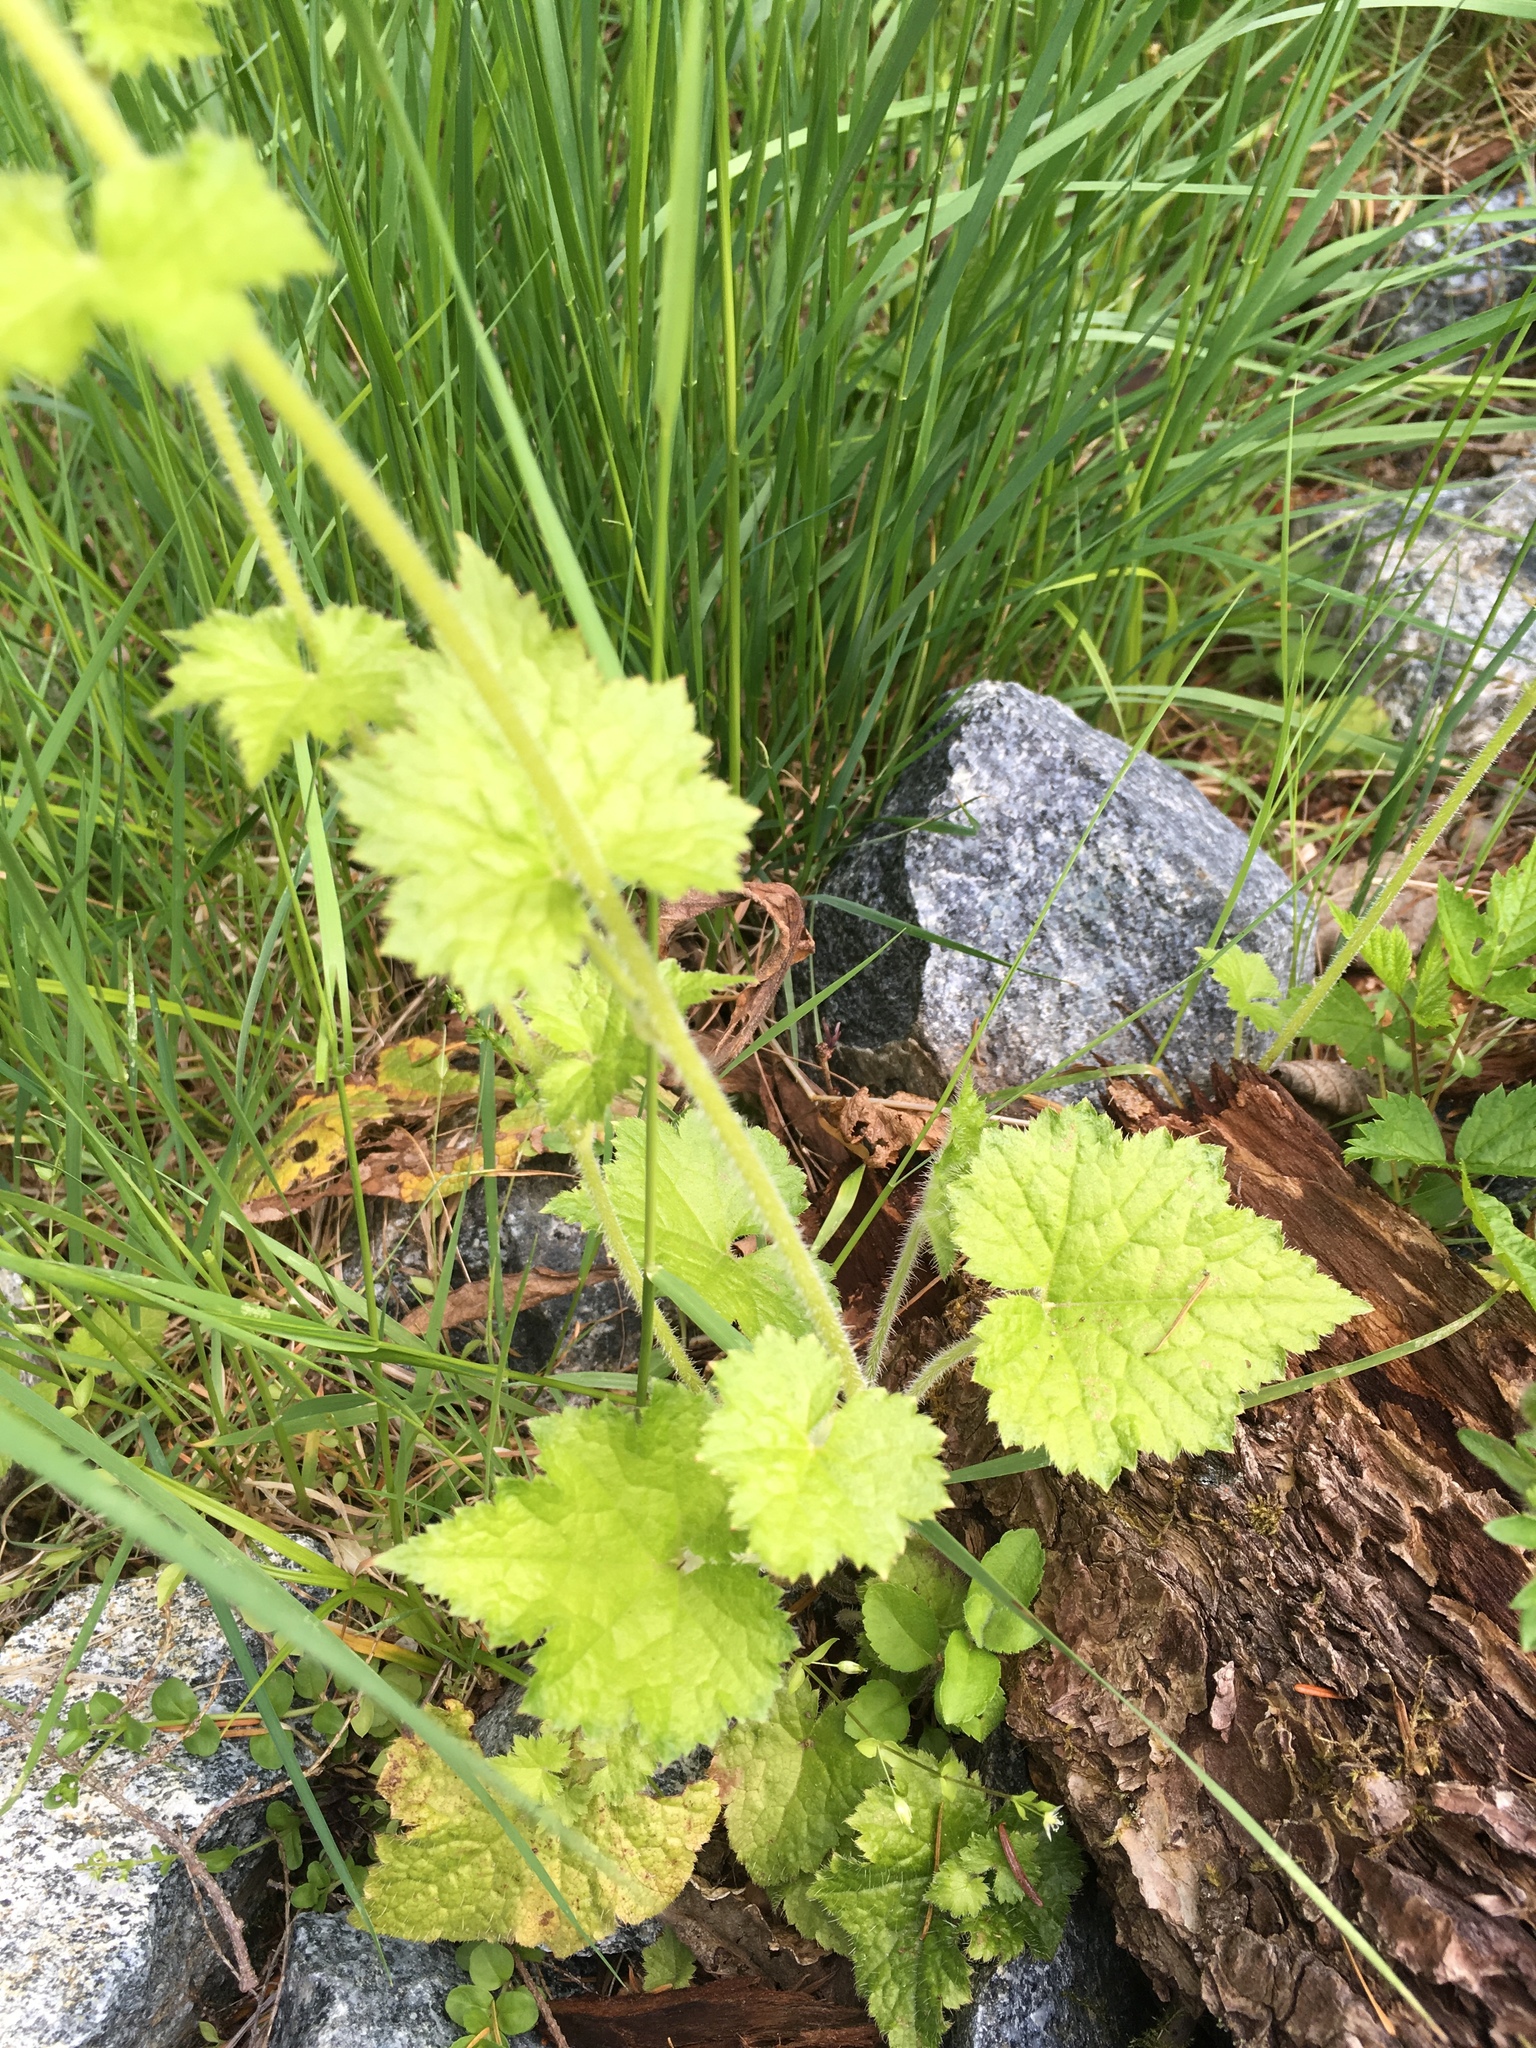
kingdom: Plantae
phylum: Tracheophyta
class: Magnoliopsida
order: Saxifragales
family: Saxifragaceae
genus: Tolmiea
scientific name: Tolmiea menziesii
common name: Pick-a-back-plant
